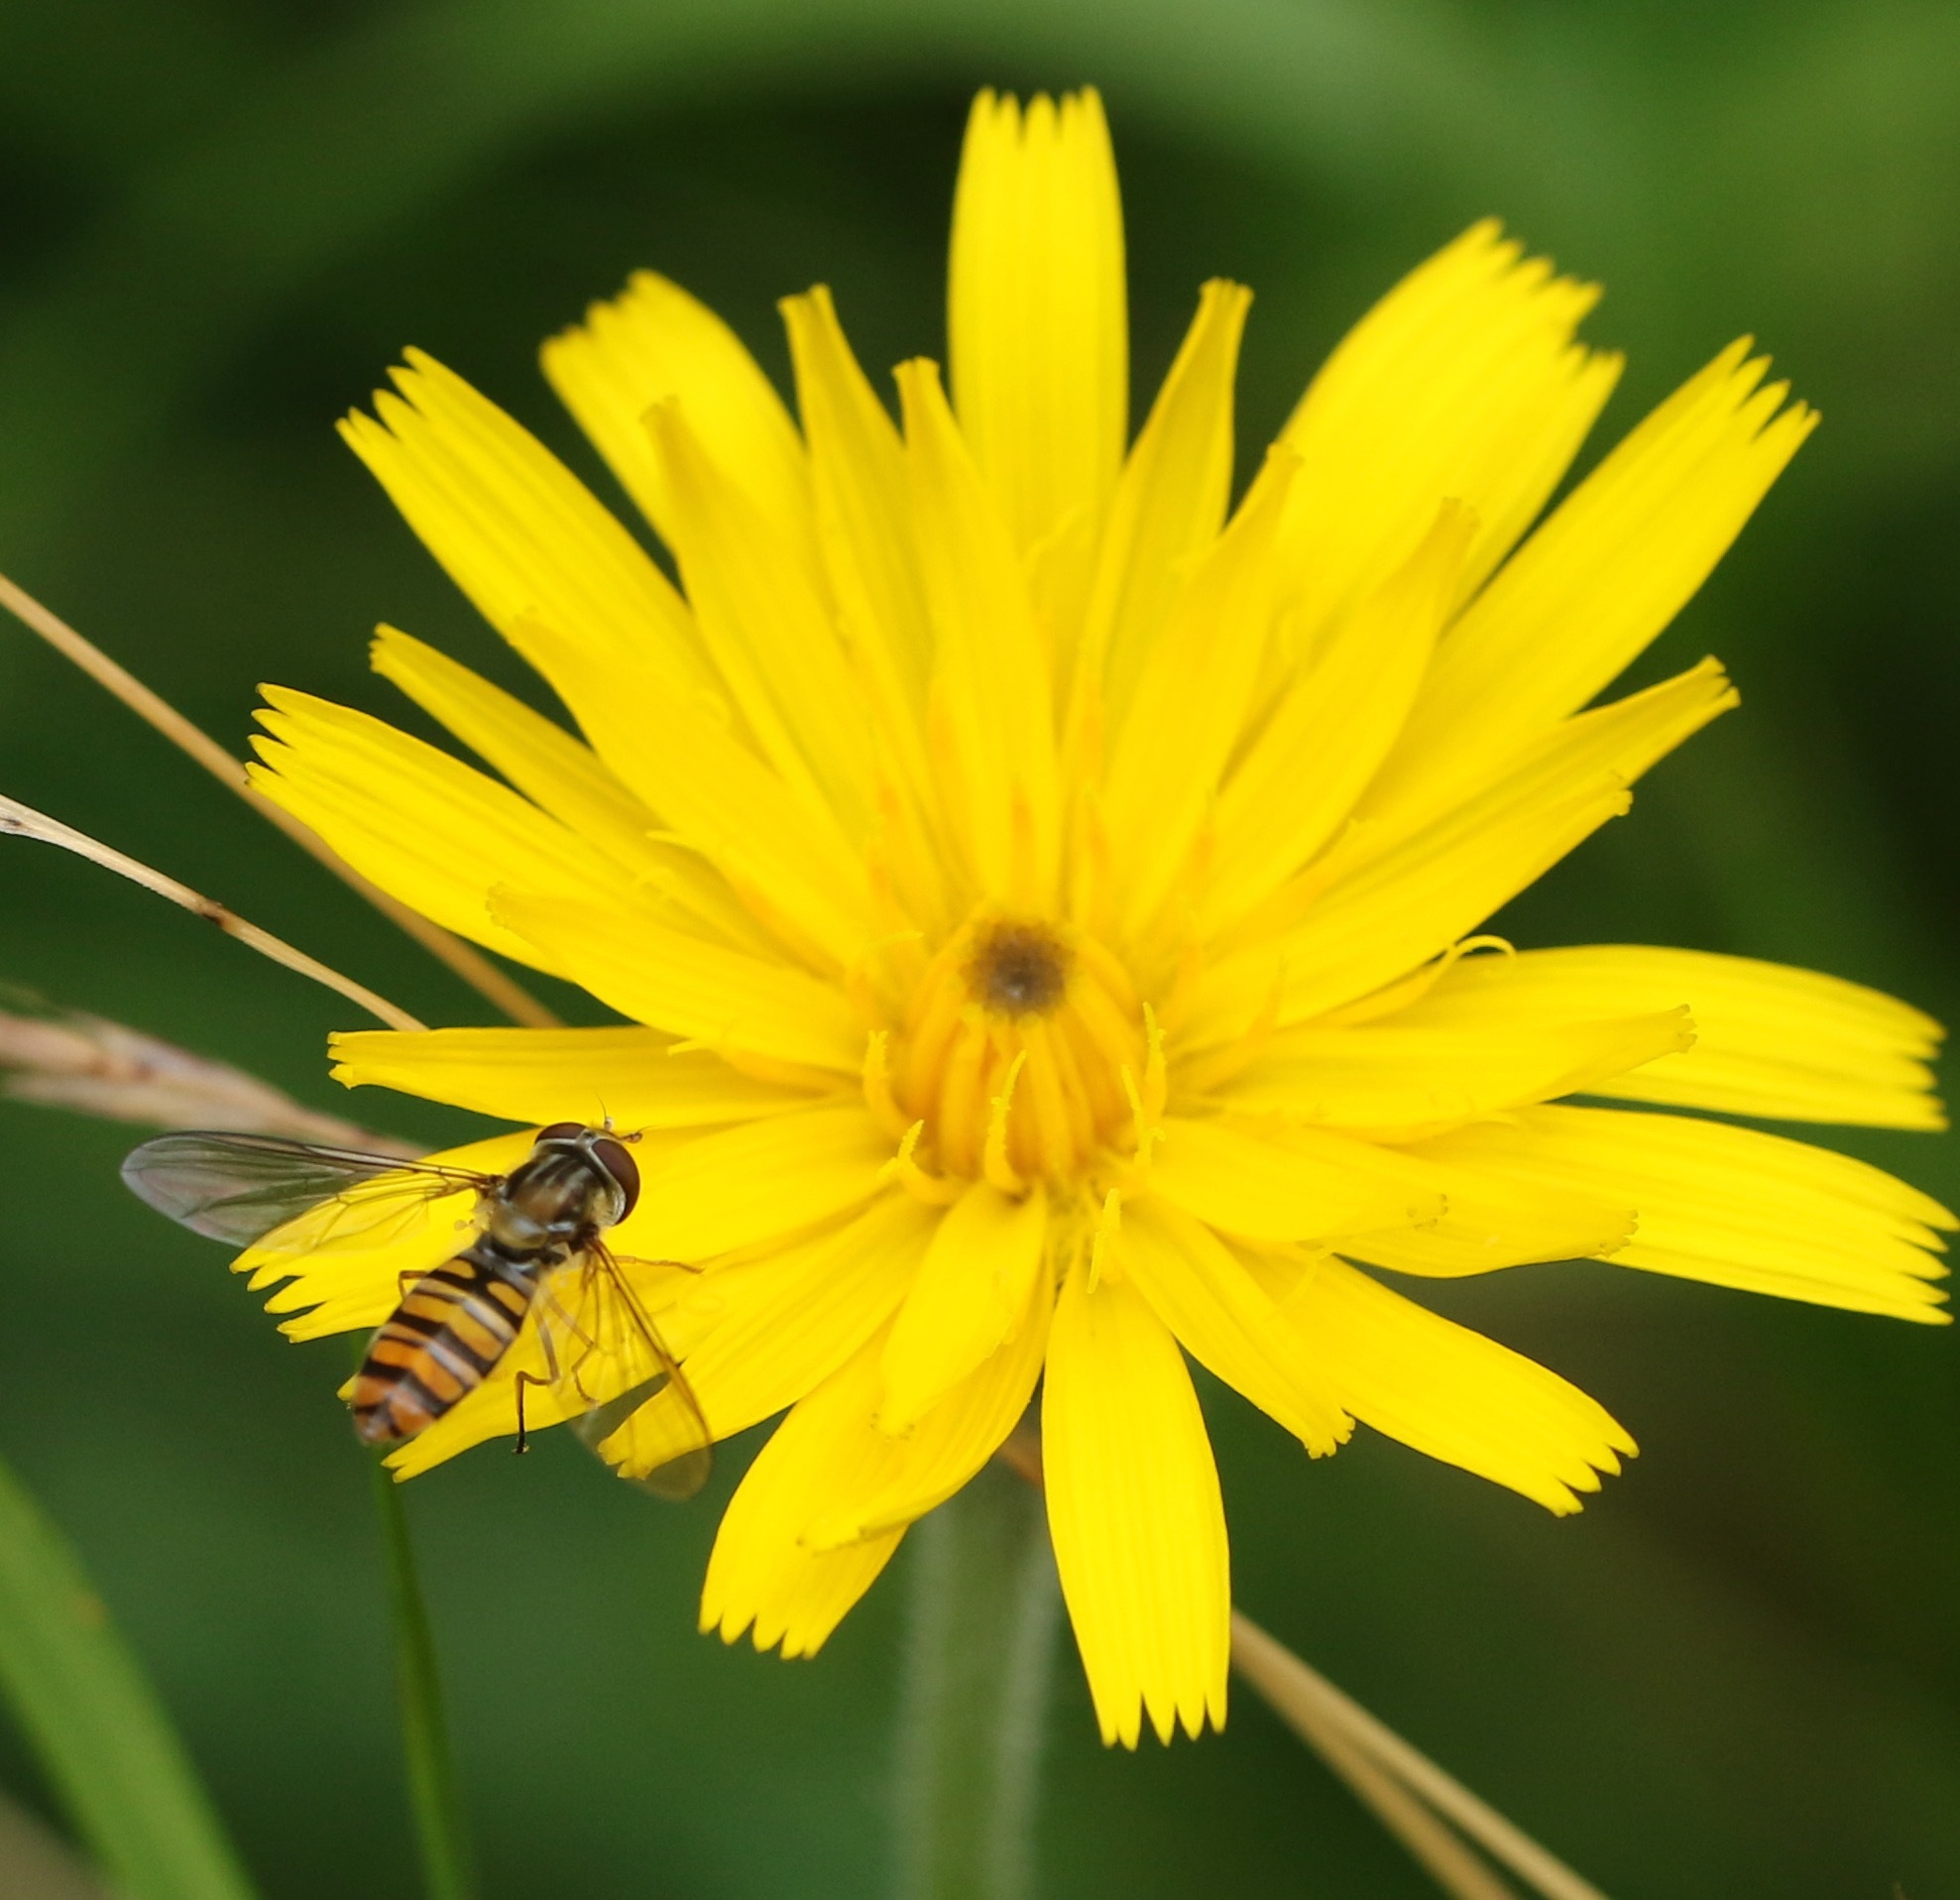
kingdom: Animalia
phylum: Arthropoda
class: Insecta
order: Diptera
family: Syrphidae
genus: Episyrphus
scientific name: Episyrphus balteatus
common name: Marmalade hoverfly
